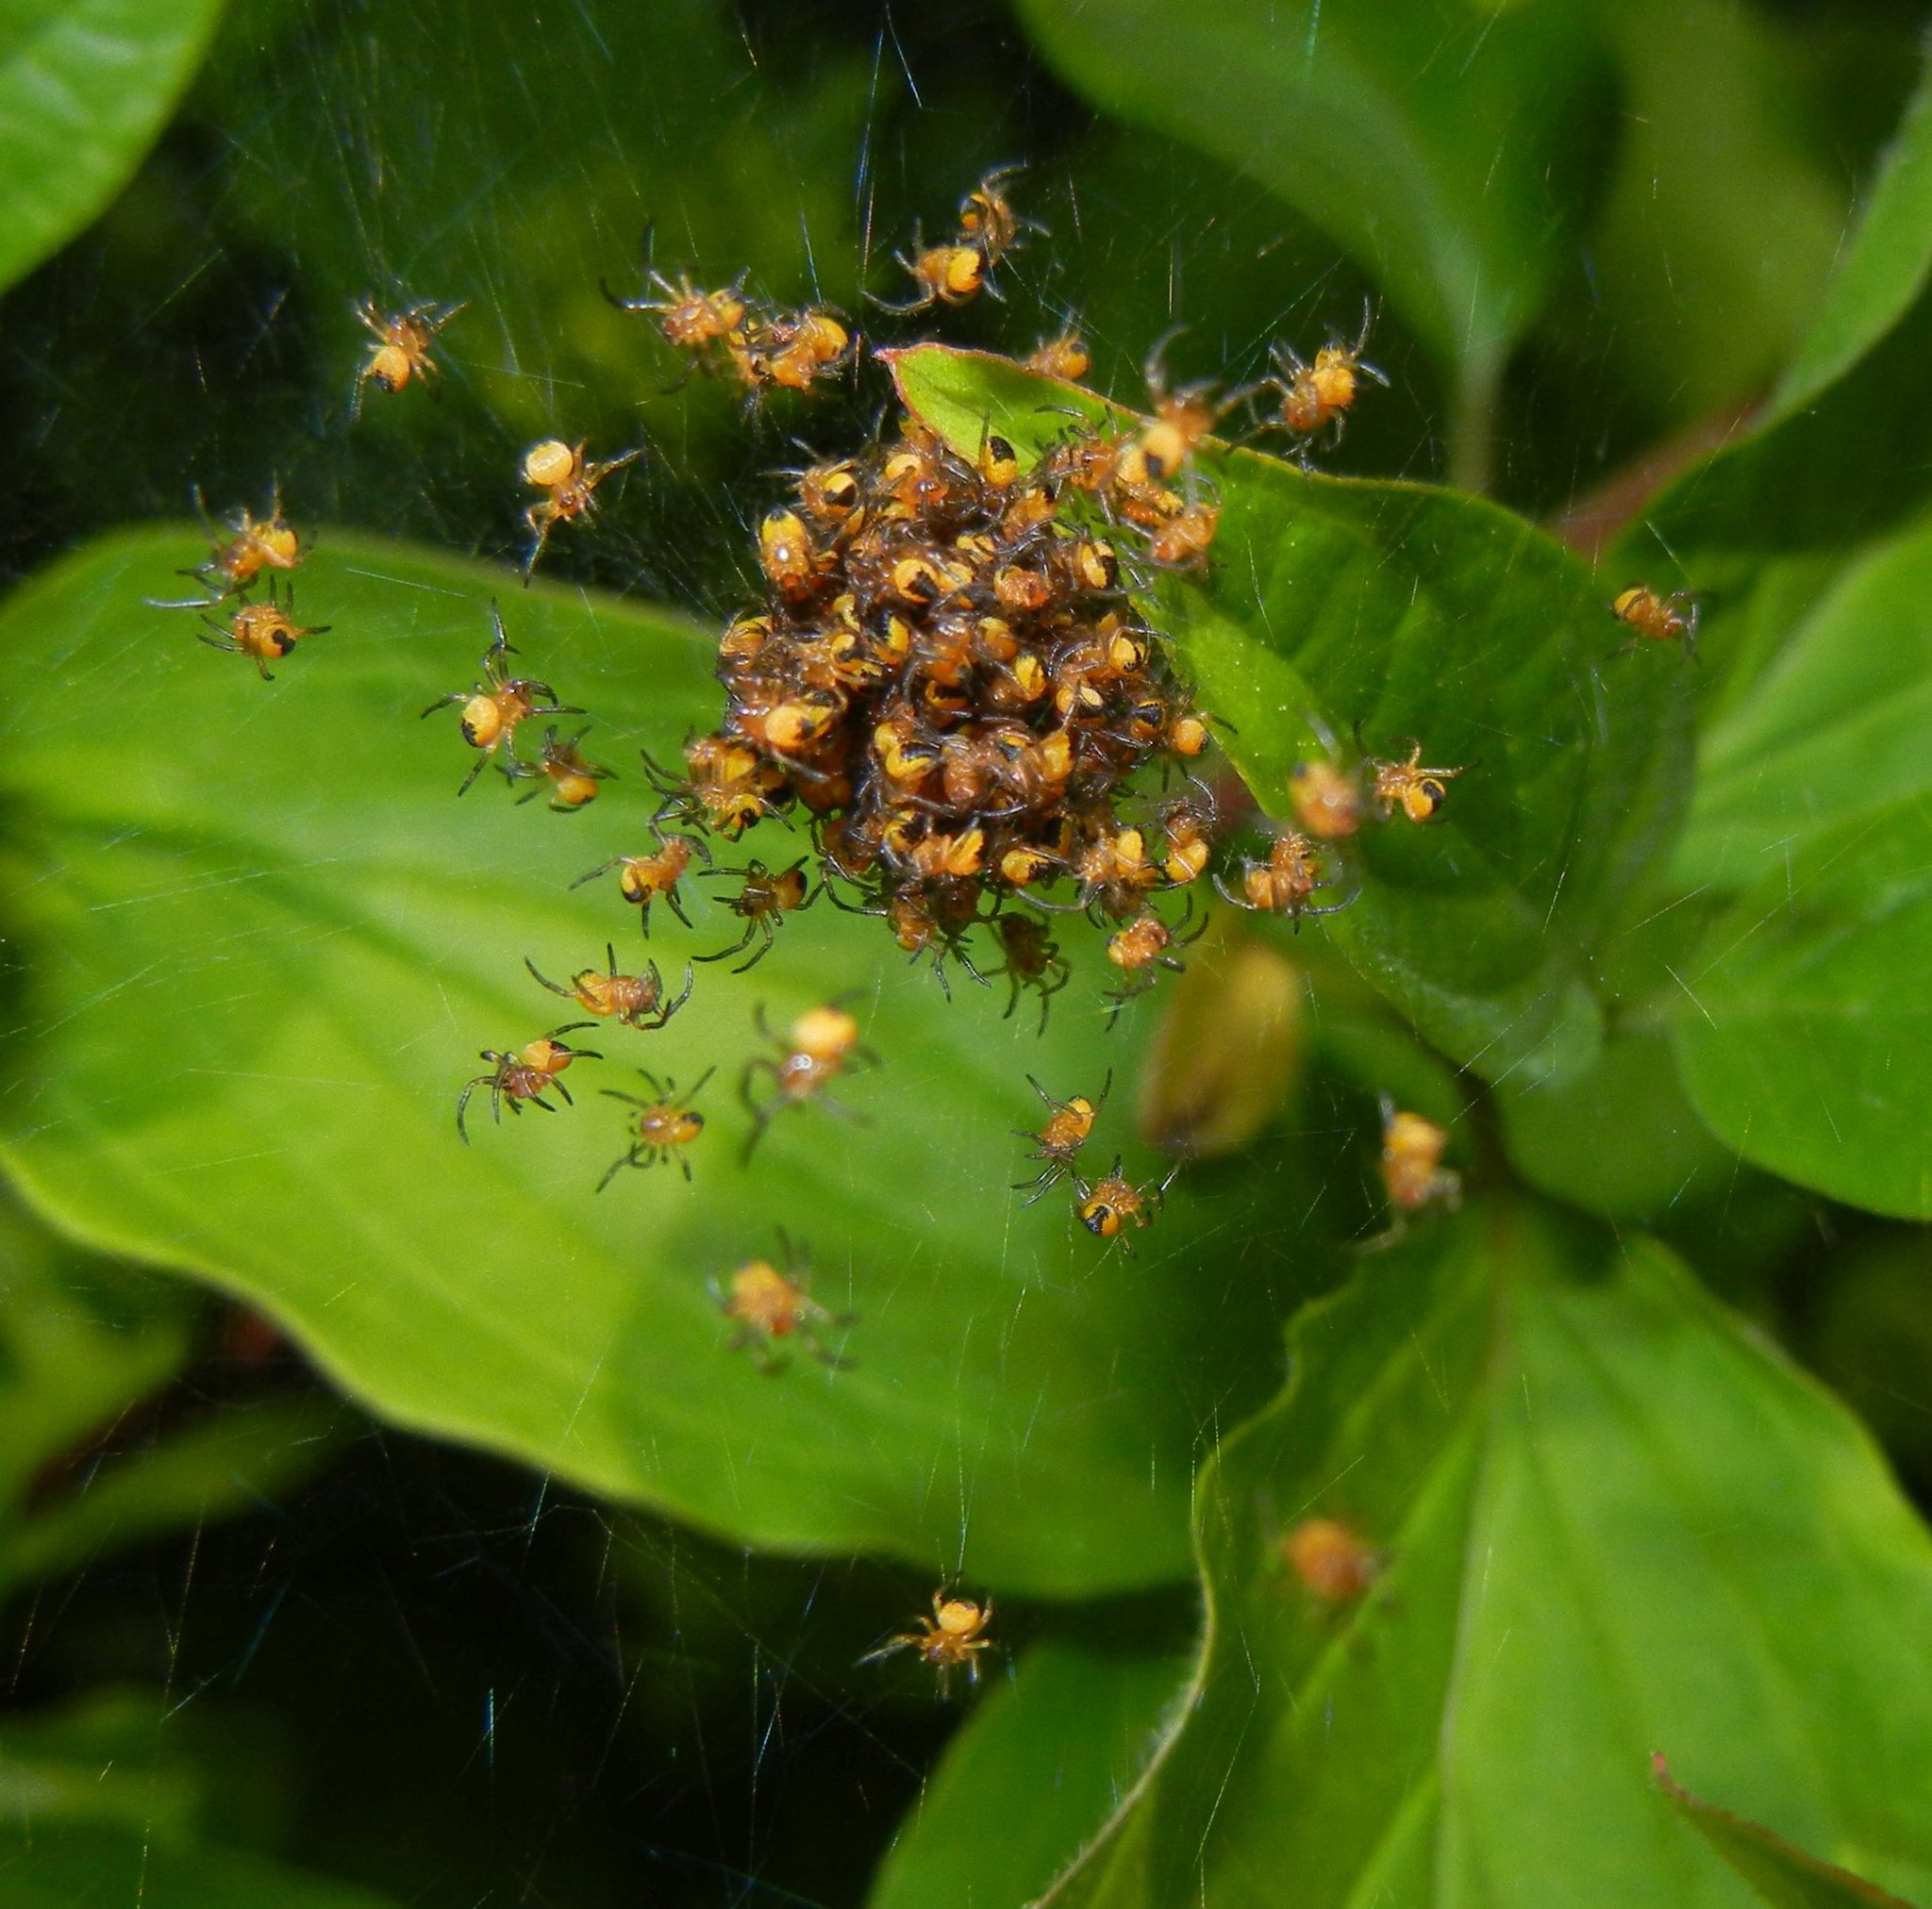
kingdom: Animalia
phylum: Arthropoda
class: Arachnida
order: Araneae
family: Araneidae
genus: Araneus
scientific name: Araneus diadematus
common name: Cross orbweaver
